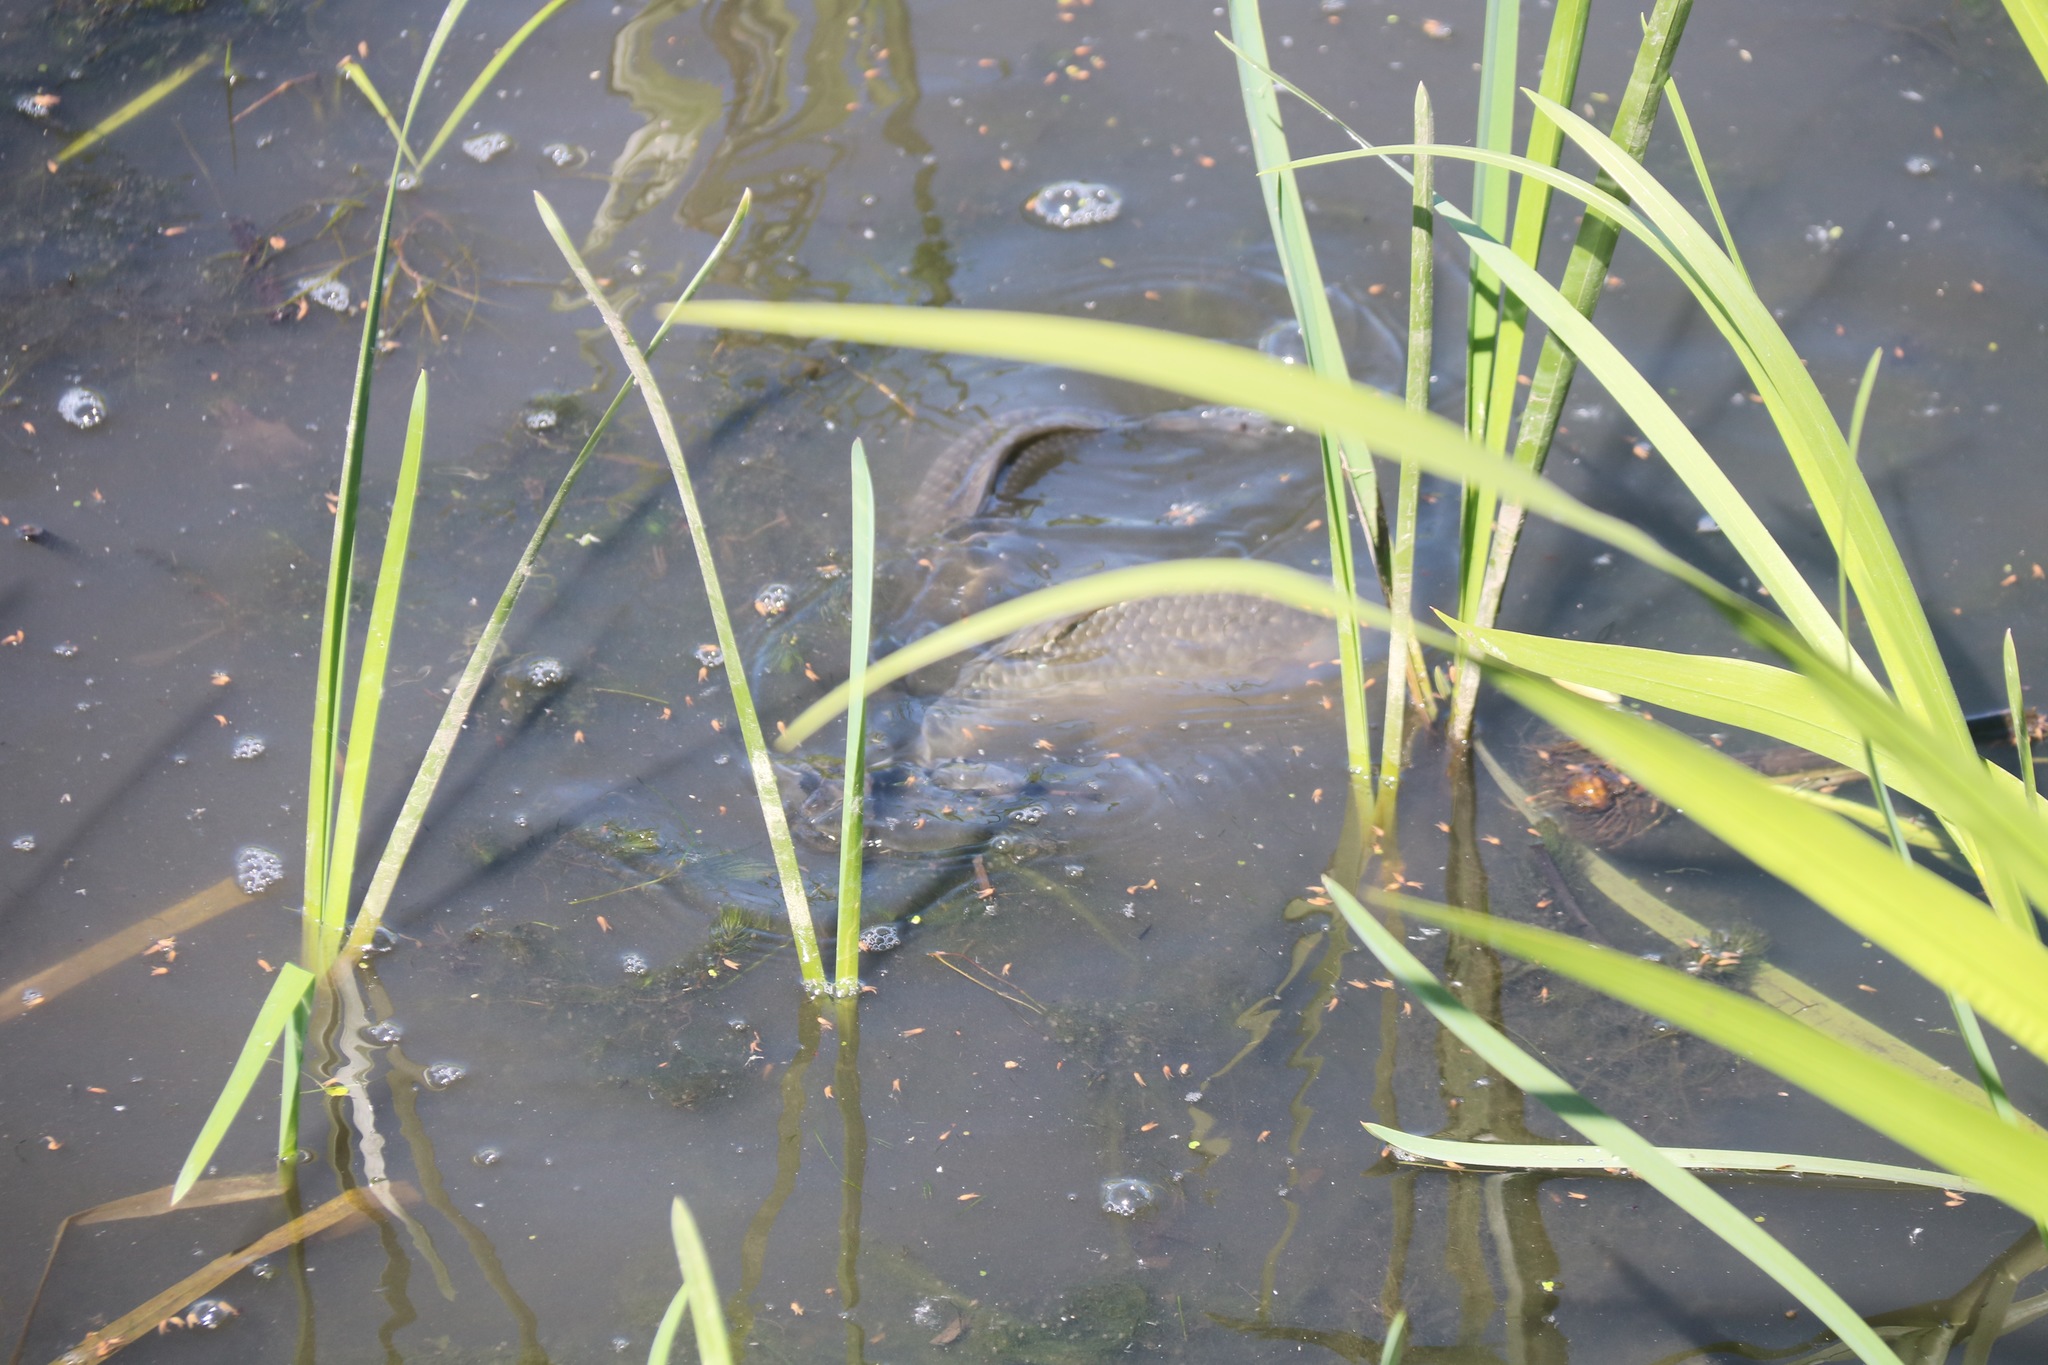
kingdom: Animalia
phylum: Chordata
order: Cypriniformes
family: Cyprinidae
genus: Carassius
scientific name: Carassius
